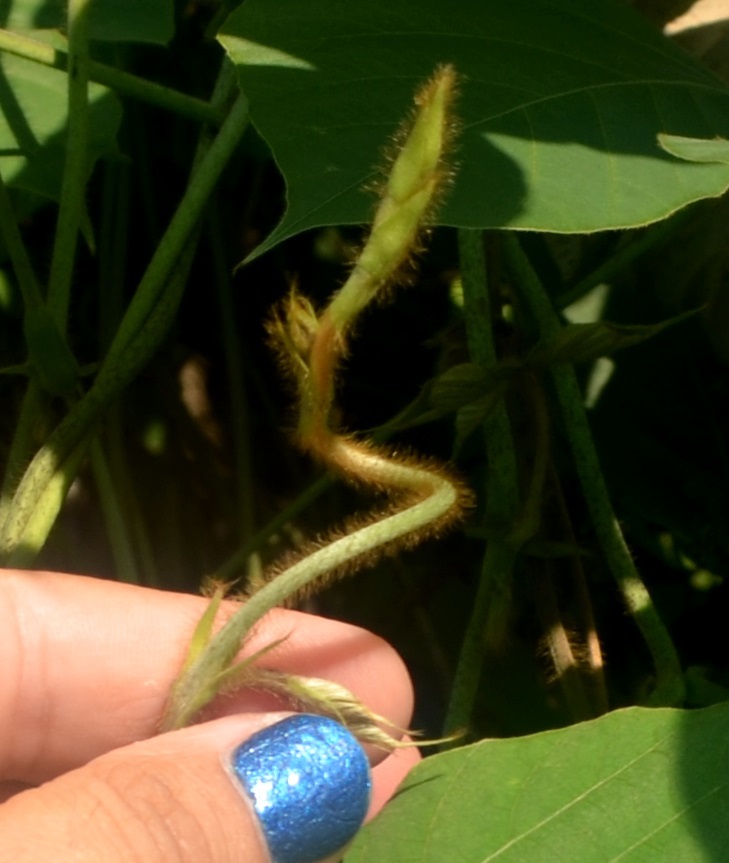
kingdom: Plantae
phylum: Tracheophyta
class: Magnoliopsida
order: Fabales
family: Fabaceae
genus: Pueraria
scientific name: Pueraria montana
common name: Kudzu
